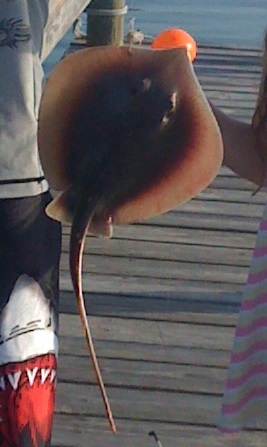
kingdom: Animalia
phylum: Chordata
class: Elasmobranchii
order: Myliobatiformes
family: Dasyatidae
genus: Hypanus
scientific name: Hypanus sabinus
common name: Atlantic stingray
